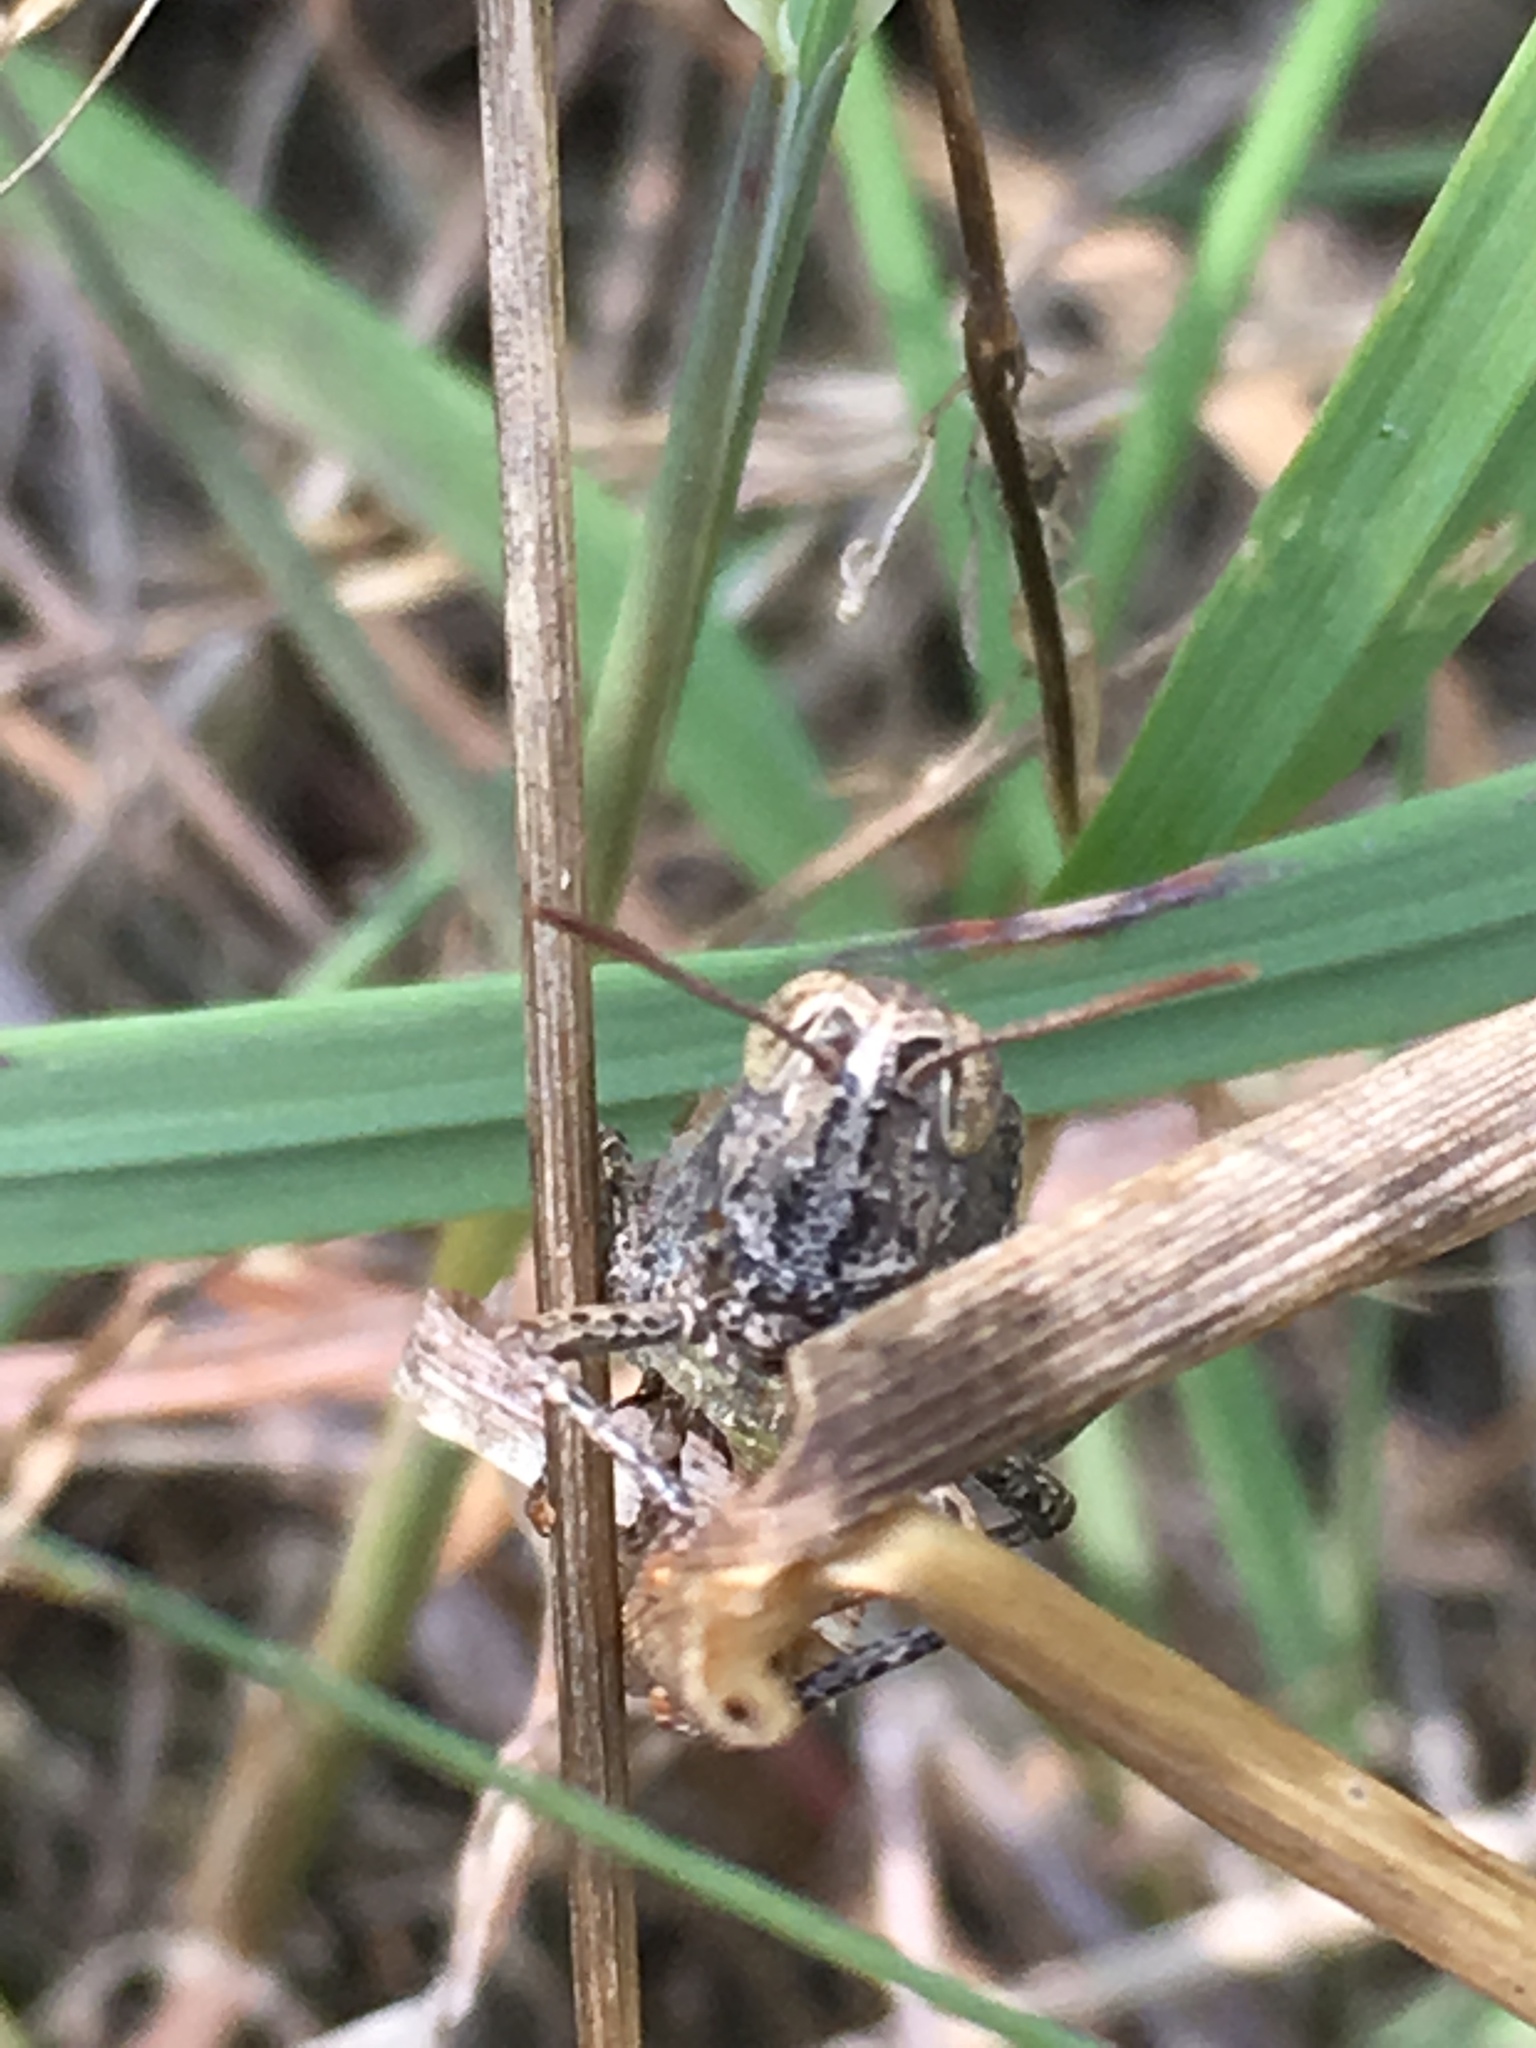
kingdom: Animalia
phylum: Arthropoda
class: Insecta
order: Orthoptera
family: Acrididae
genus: Chorthippus
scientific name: Chorthippus brunneus
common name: Field grasshopper
